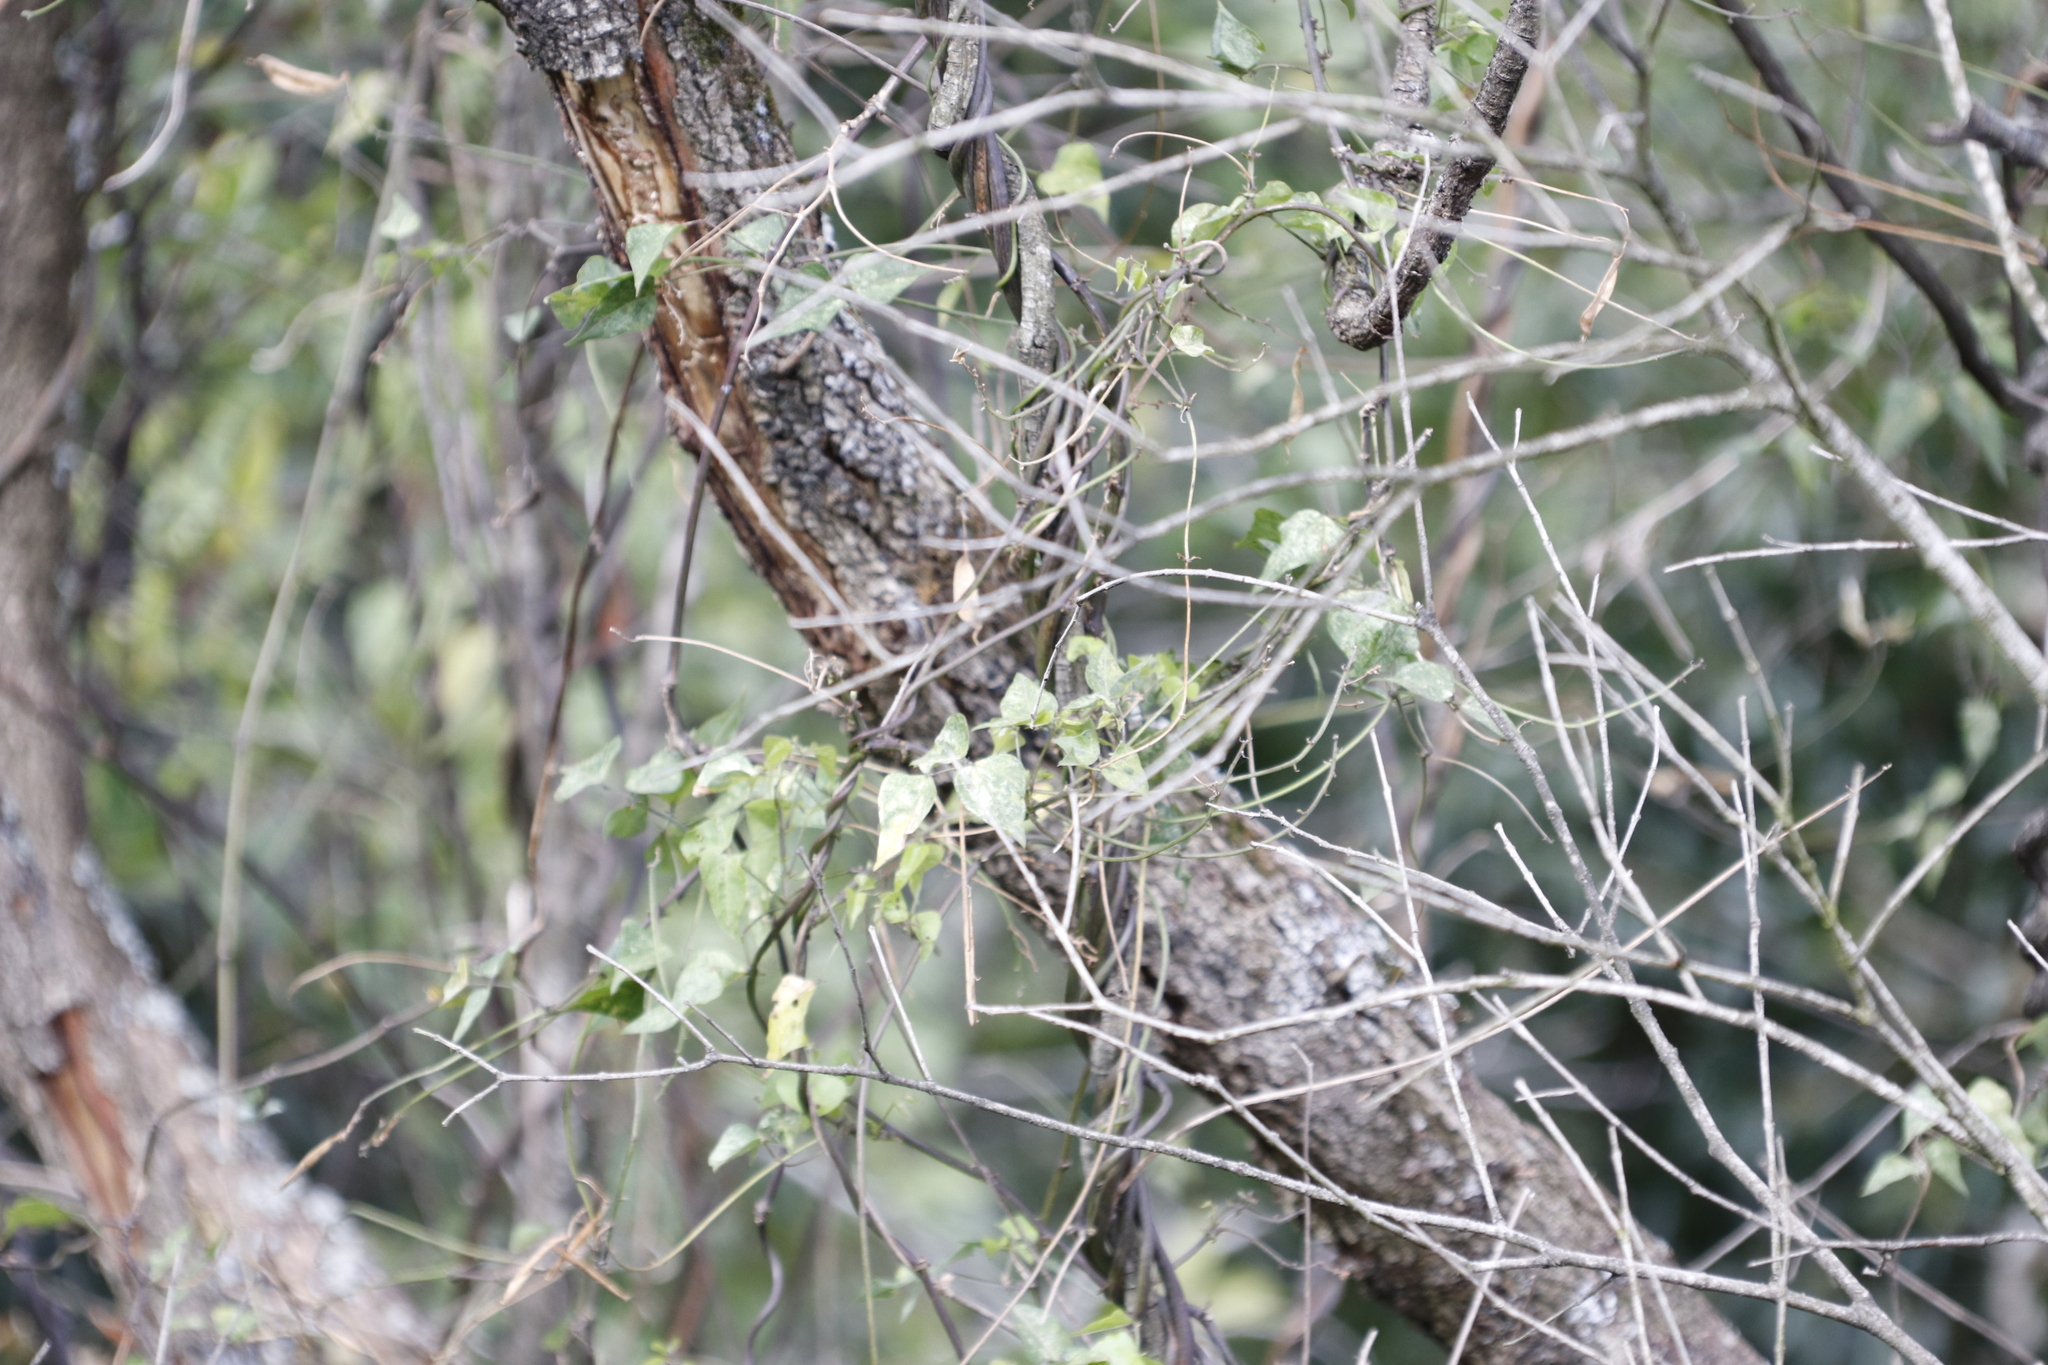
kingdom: Plantae
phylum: Tracheophyta
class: Magnoliopsida
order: Fabales
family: Fabaceae
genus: Dipogon
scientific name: Dipogon lignosus
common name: Okie bean
